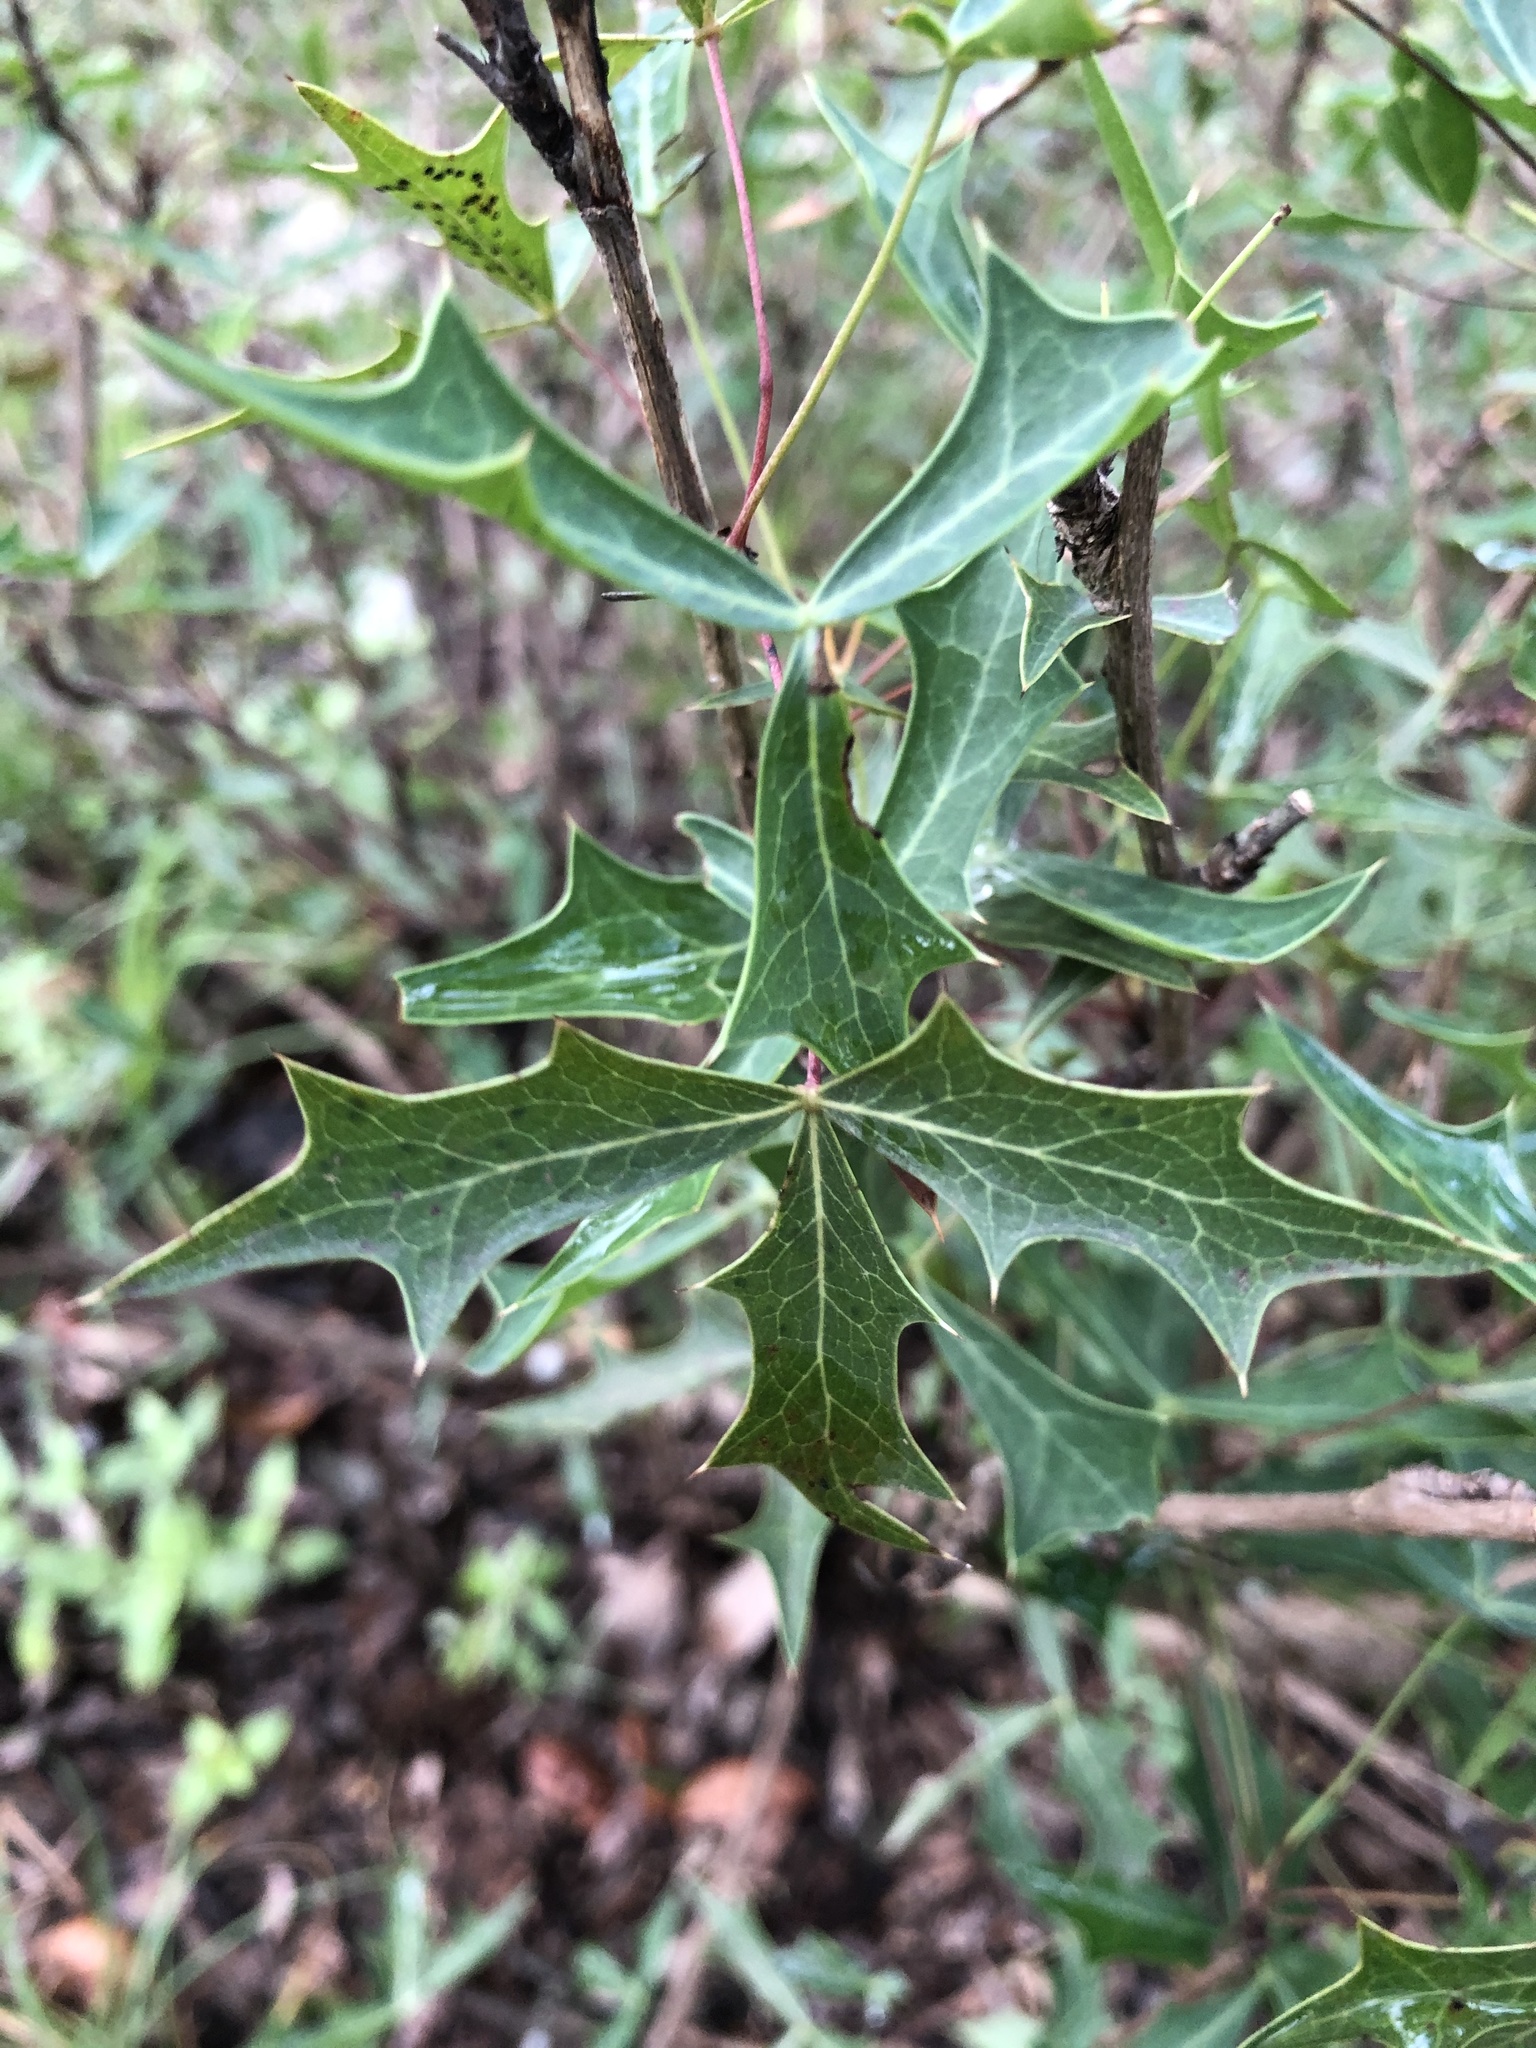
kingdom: Plantae
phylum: Tracheophyta
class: Magnoliopsida
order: Ranunculales
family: Berberidaceae
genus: Alloberberis
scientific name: Alloberberis trifoliolata
